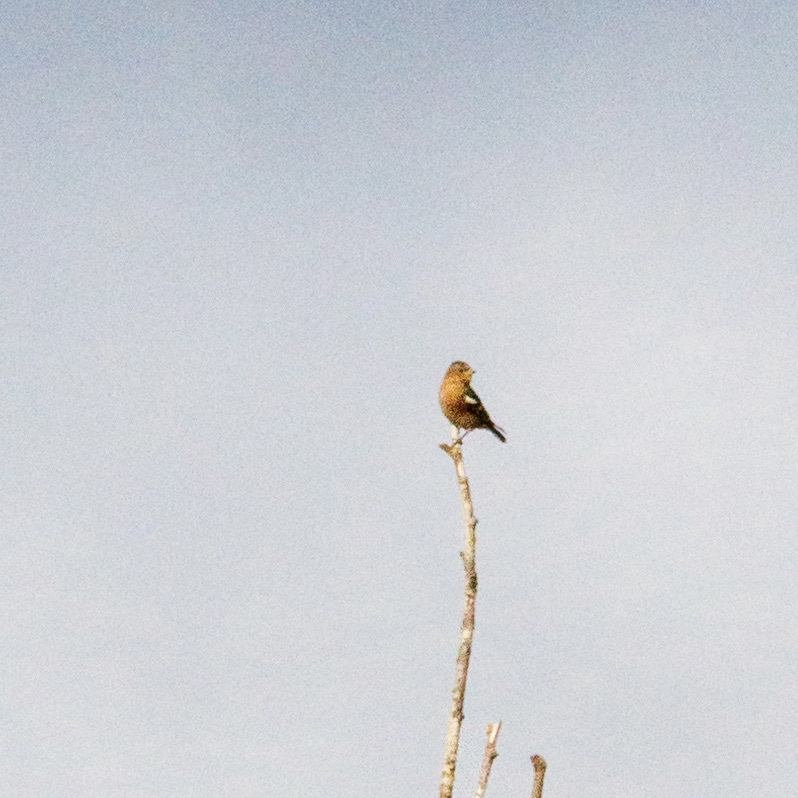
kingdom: Animalia
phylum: Chordata
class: Aves
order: Passeriformes
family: Fringillidae
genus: Fringilla
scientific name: Fringilla coelebs
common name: Common chaffinch
